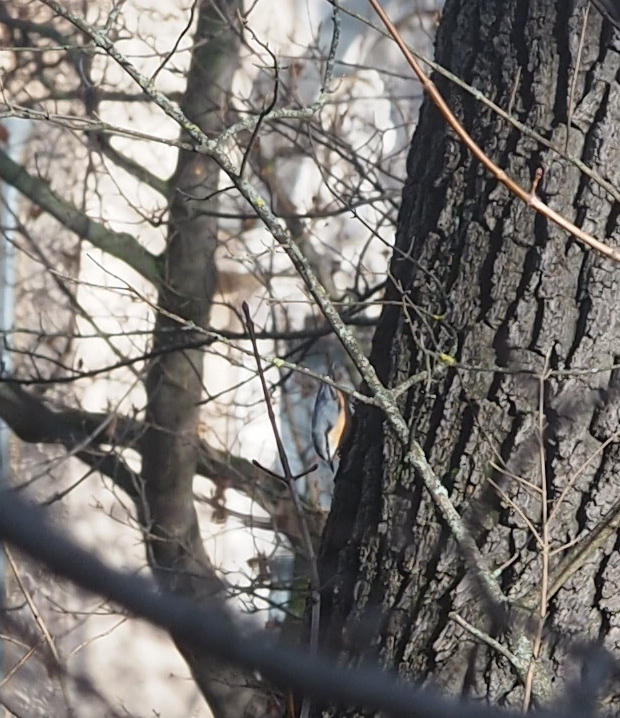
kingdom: Animalia
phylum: Chordata
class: Aves
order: Passeriformes
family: Sittidae
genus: Sitta
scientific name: Sitta europaea
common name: Eurasian nuthatch
